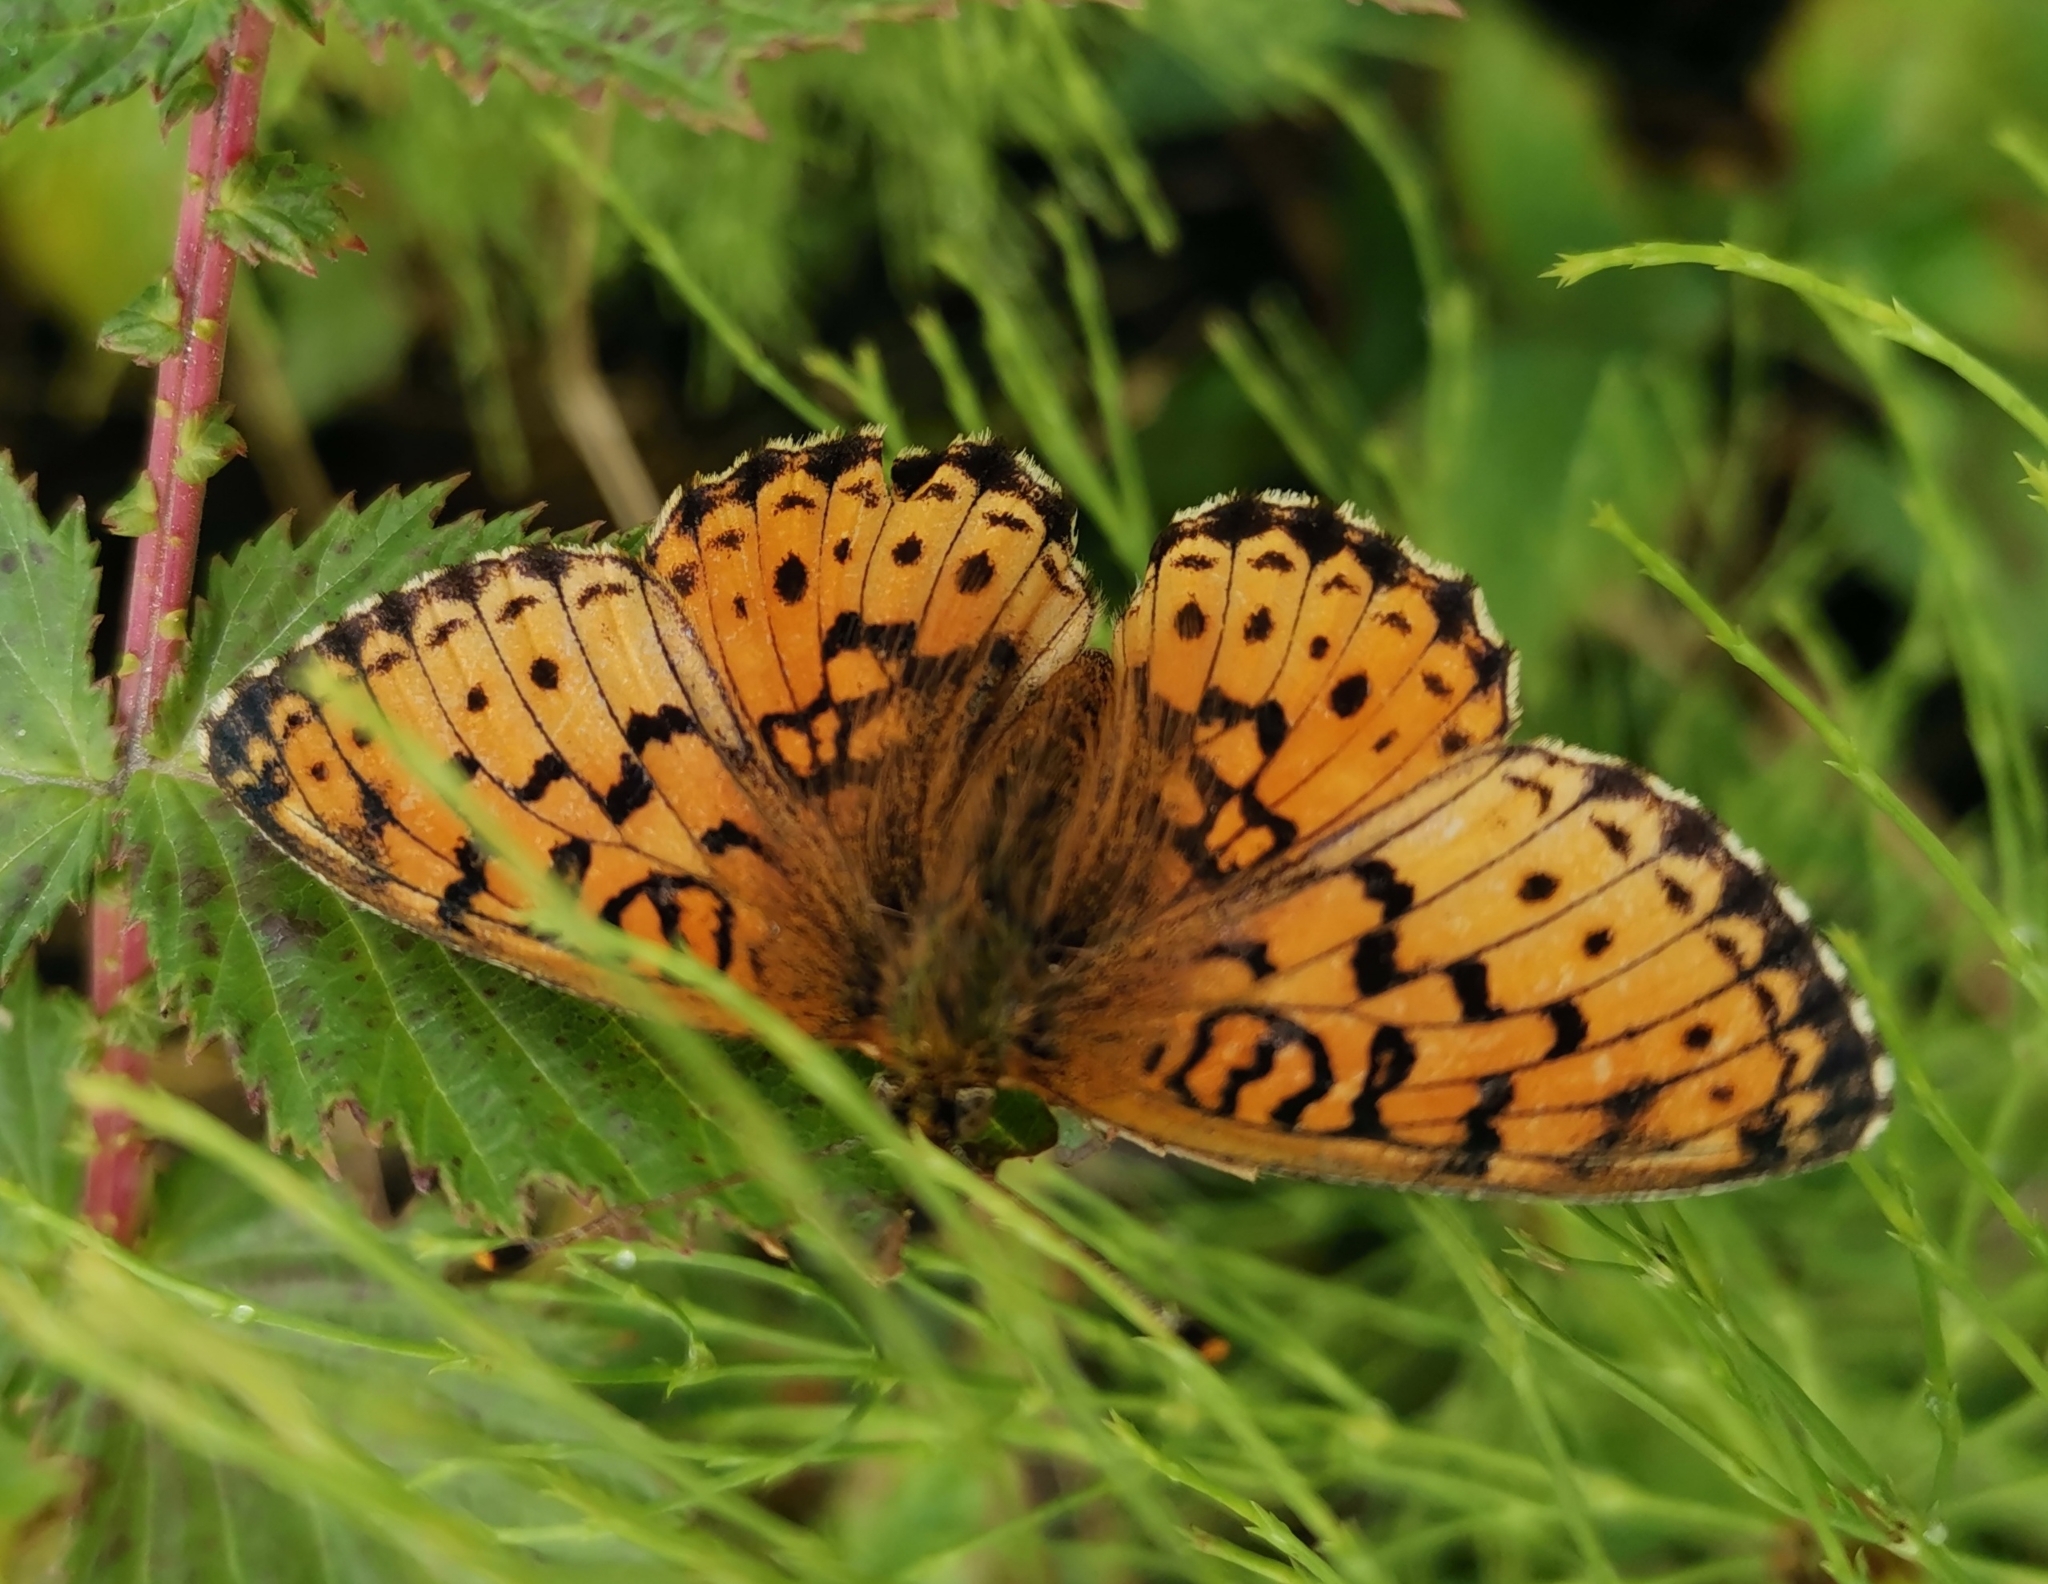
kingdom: Animalia
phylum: Arthropoda
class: Insecta
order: Lepidoptera
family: Nymphalidae
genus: Brenthis
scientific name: Brenthis ino
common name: Lesser marbled fritillary
